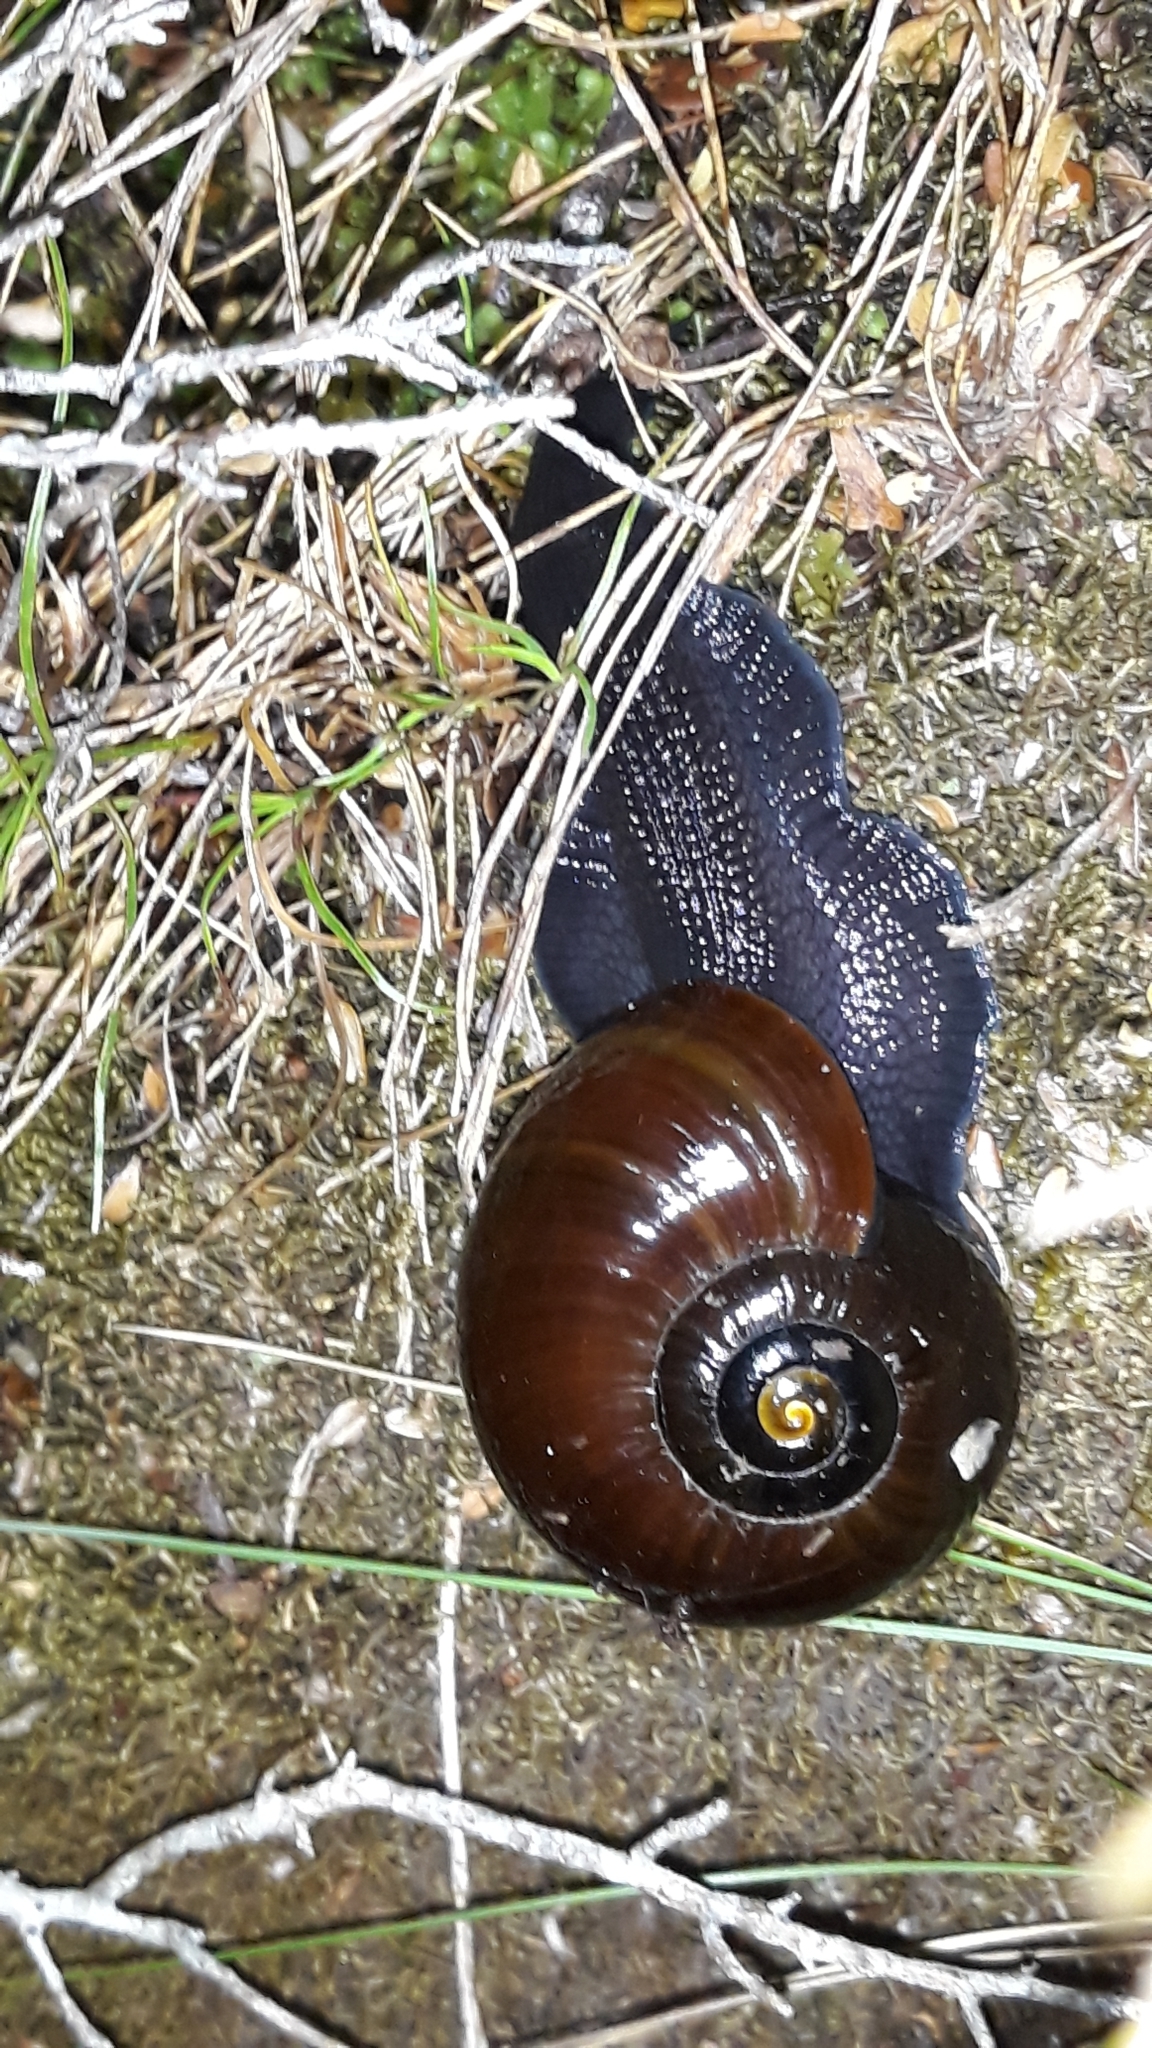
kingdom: Animalia
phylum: Mollusca
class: Gastropoda
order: Stylommatophora
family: Rhytididae
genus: Powelliphanta
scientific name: Powelliphanta superba
